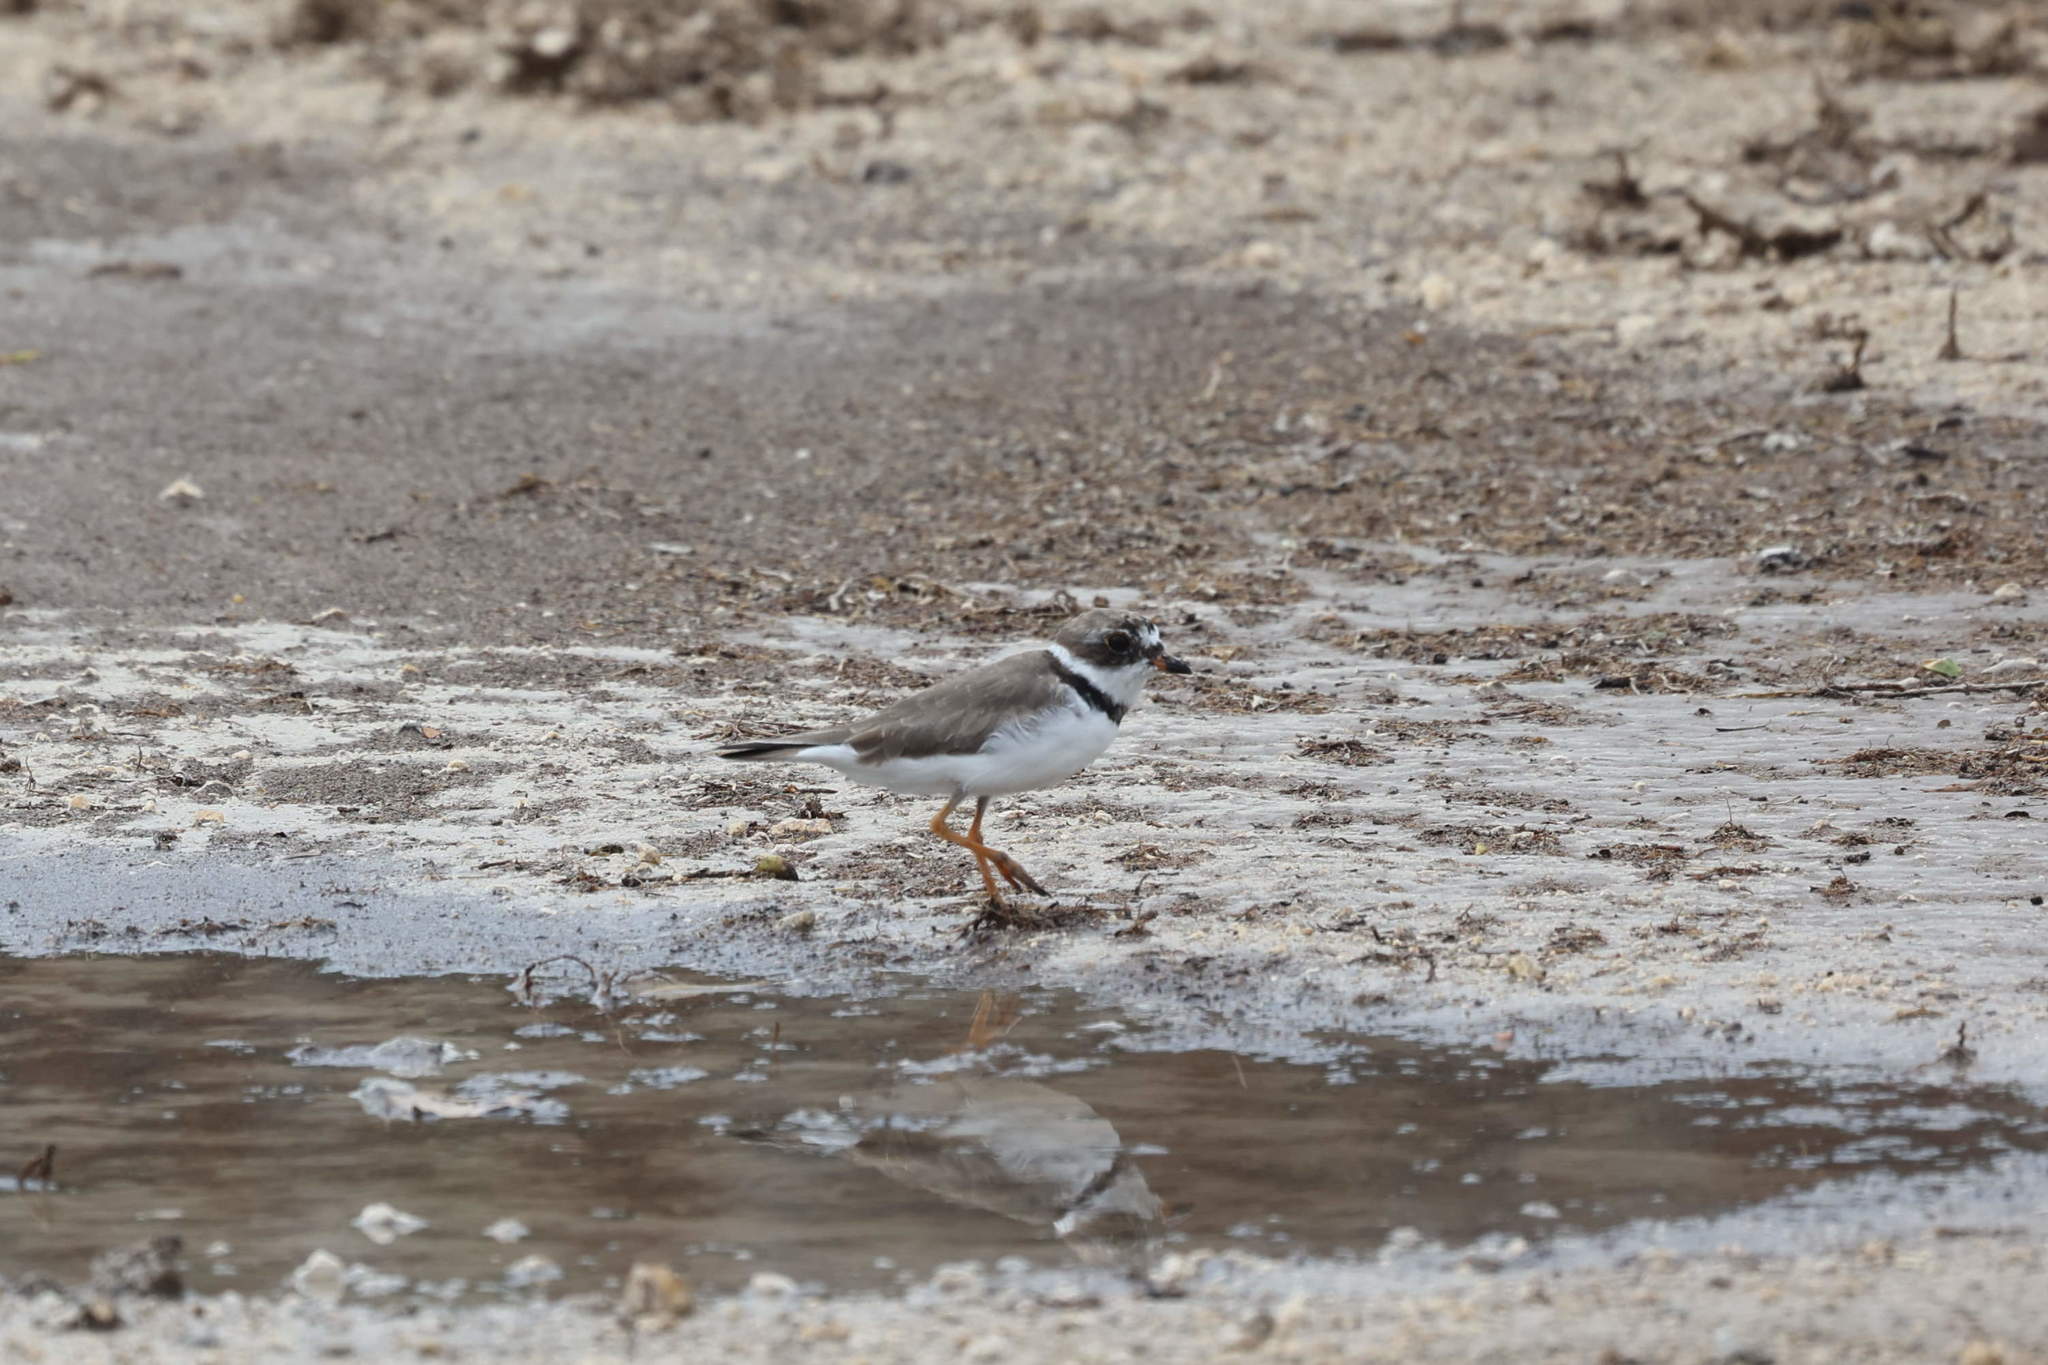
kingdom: Animalia
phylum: Chordata
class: Aves
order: Charadriiformes
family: Charadriidae
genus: Charadrius
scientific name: Charadrius semipalmatus
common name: Semipalmated plover
